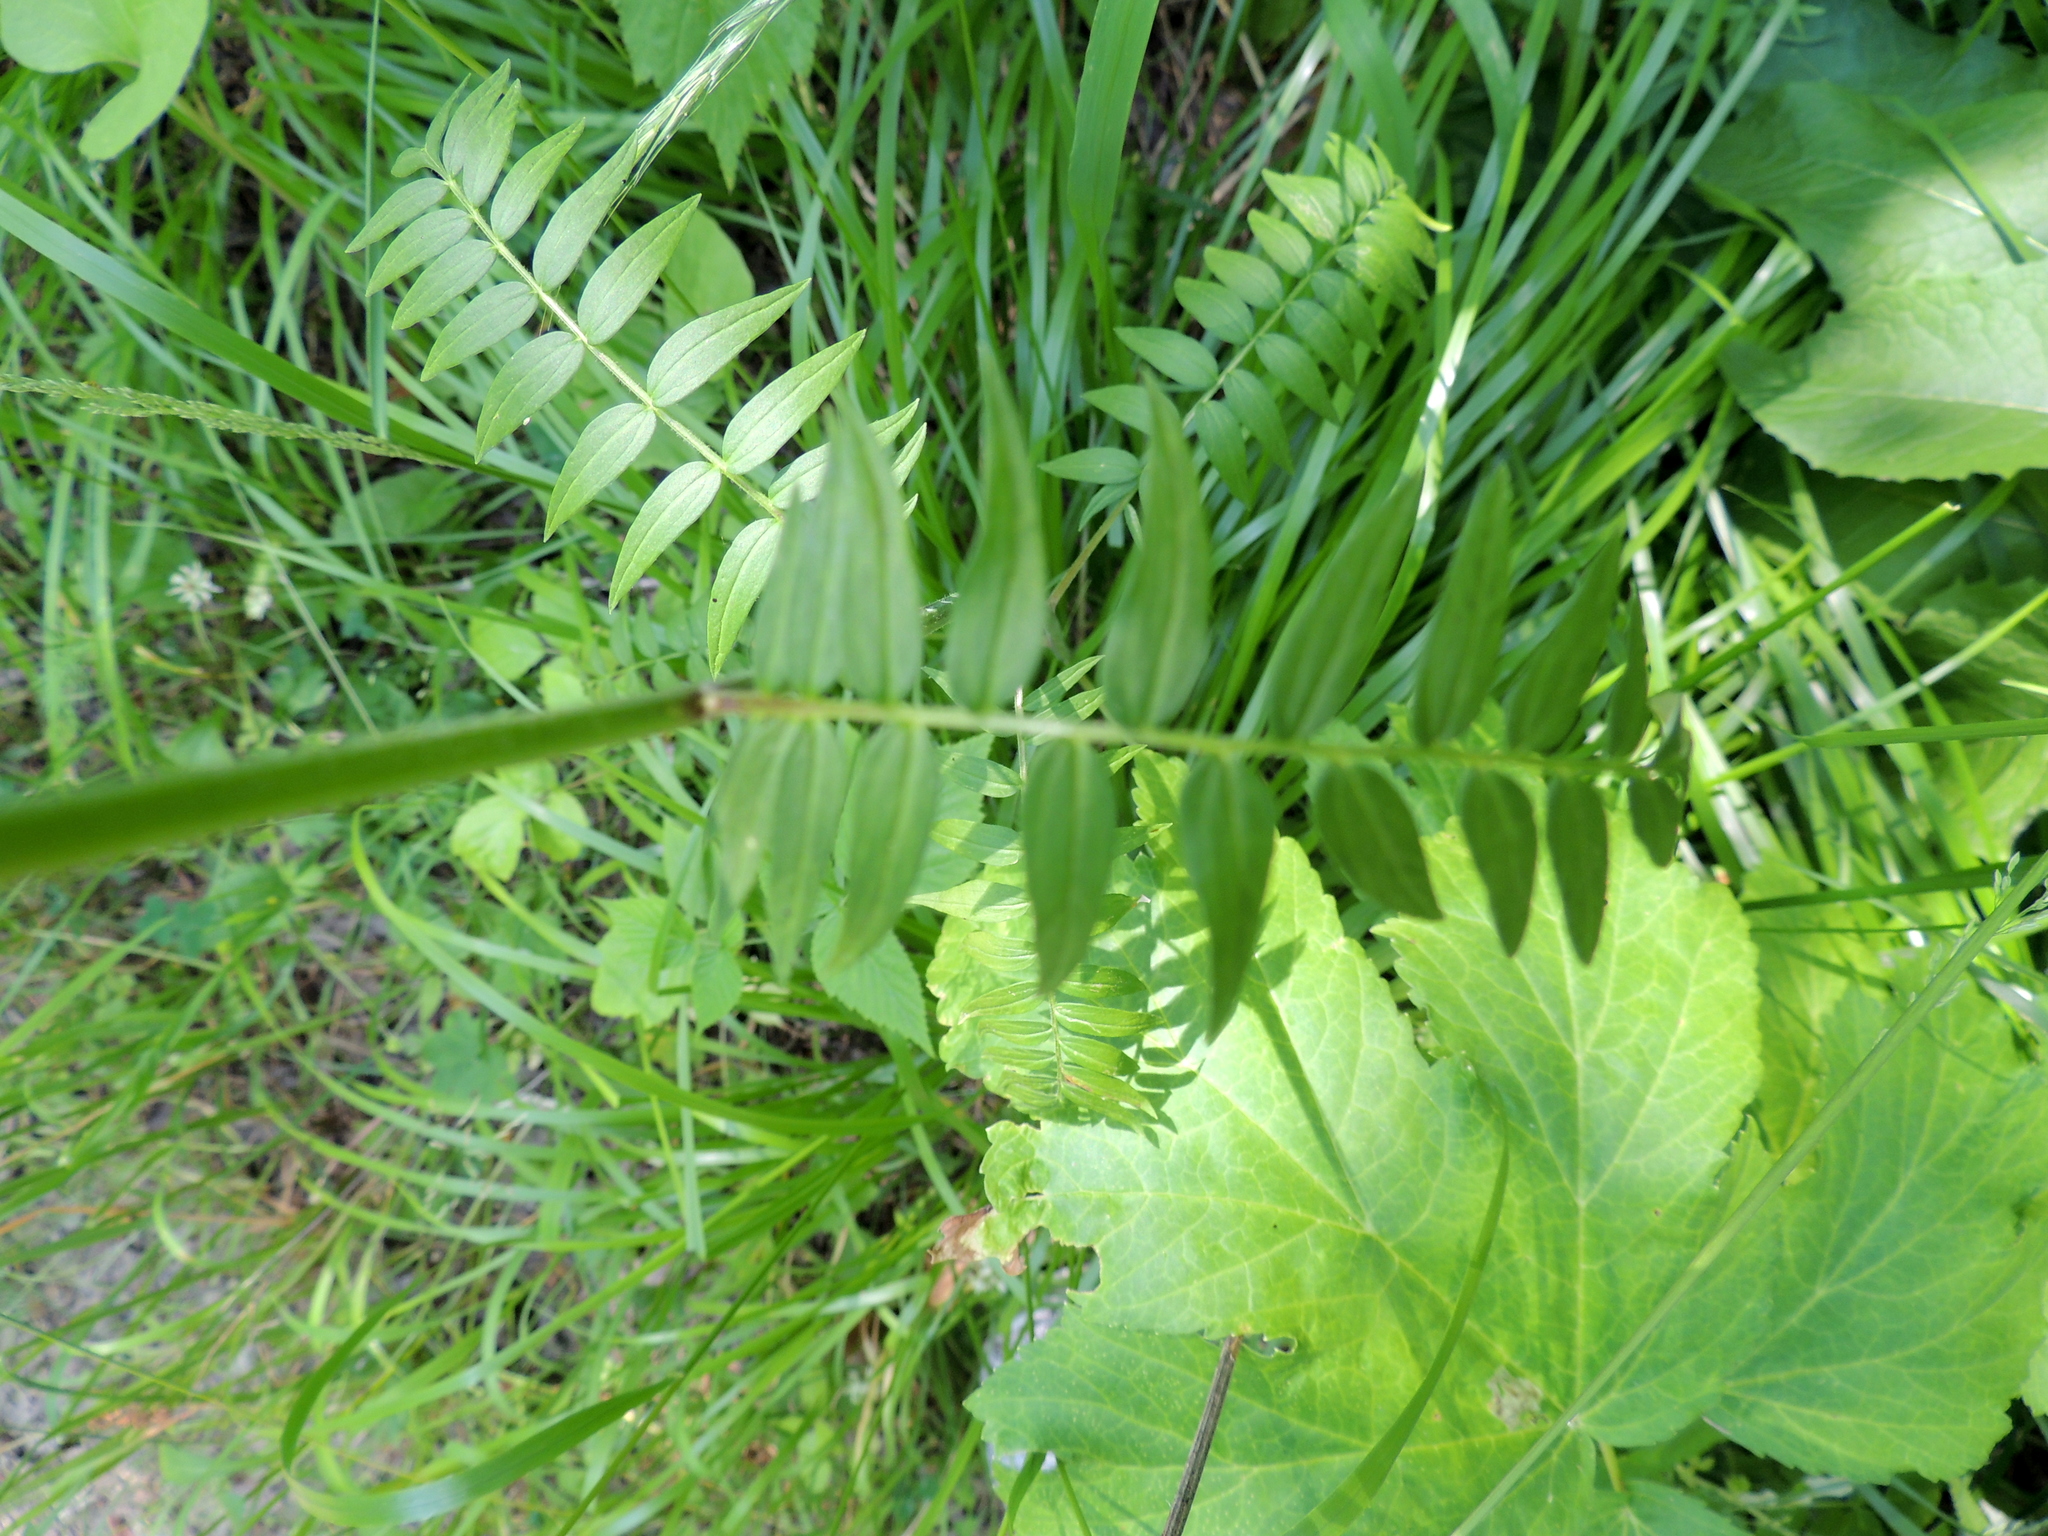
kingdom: Plantae
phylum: Tracheophyta
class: Magnoliopsida
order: Ericales
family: Polemoniaceae
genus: Polemonium
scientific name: Polemonium caeruleum
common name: Jacob's-ladder
